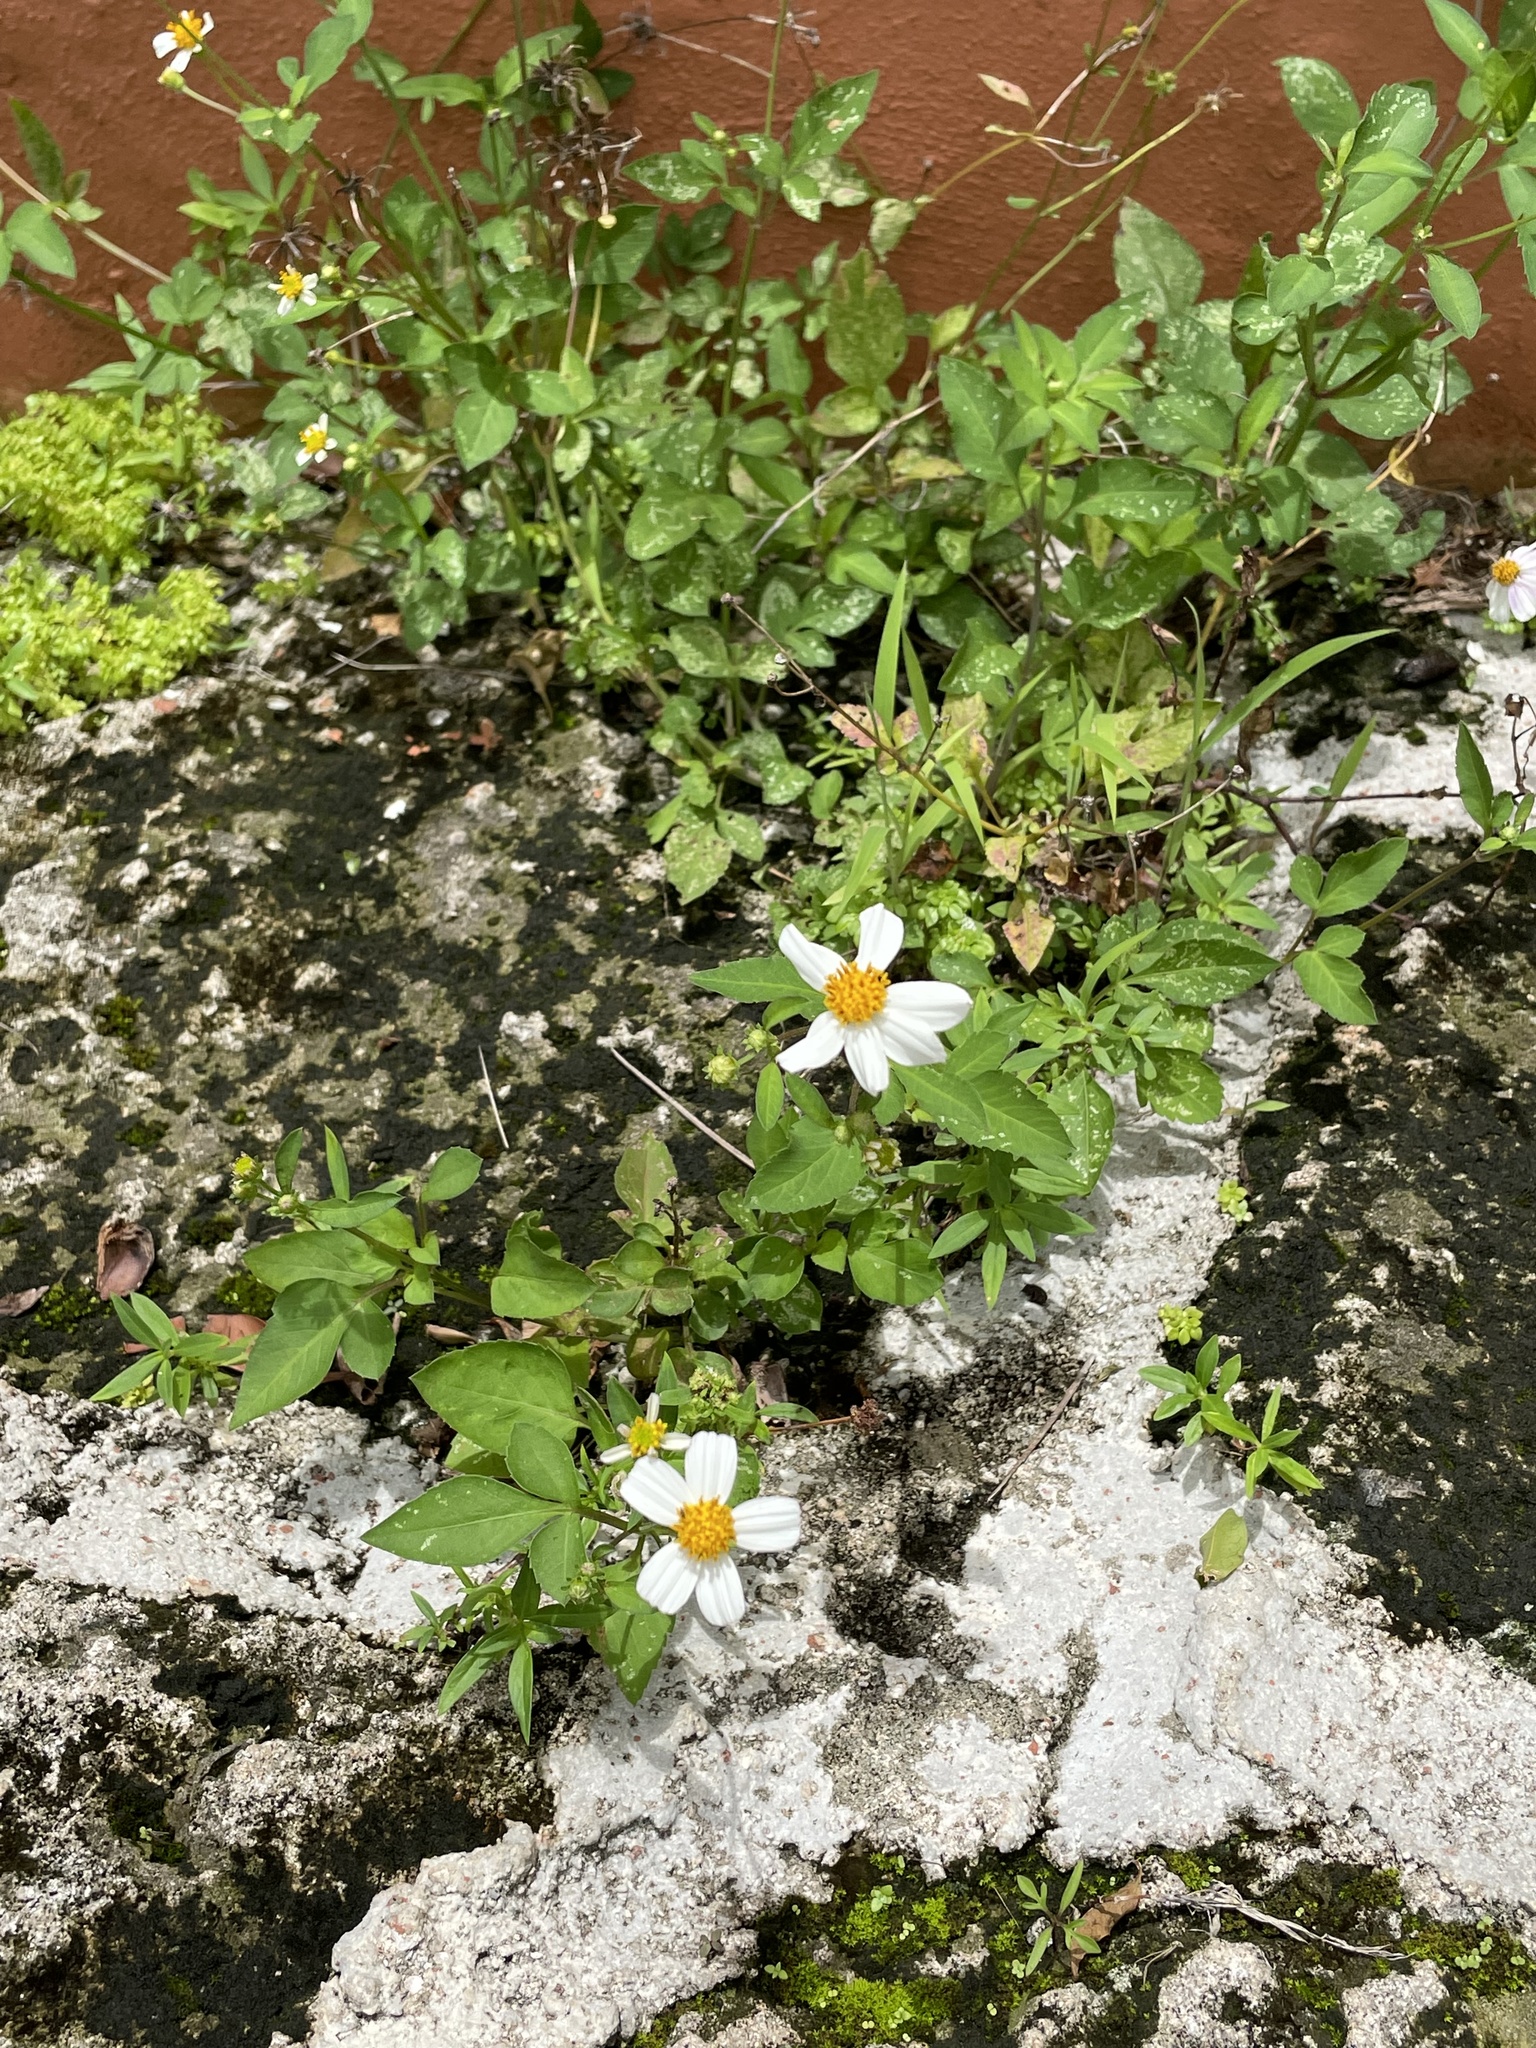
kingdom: Plantae
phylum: Tracheophyta
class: Magnoliopsida
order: Asterales
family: Asteraceae
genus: Bidens
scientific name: Bidens alba
